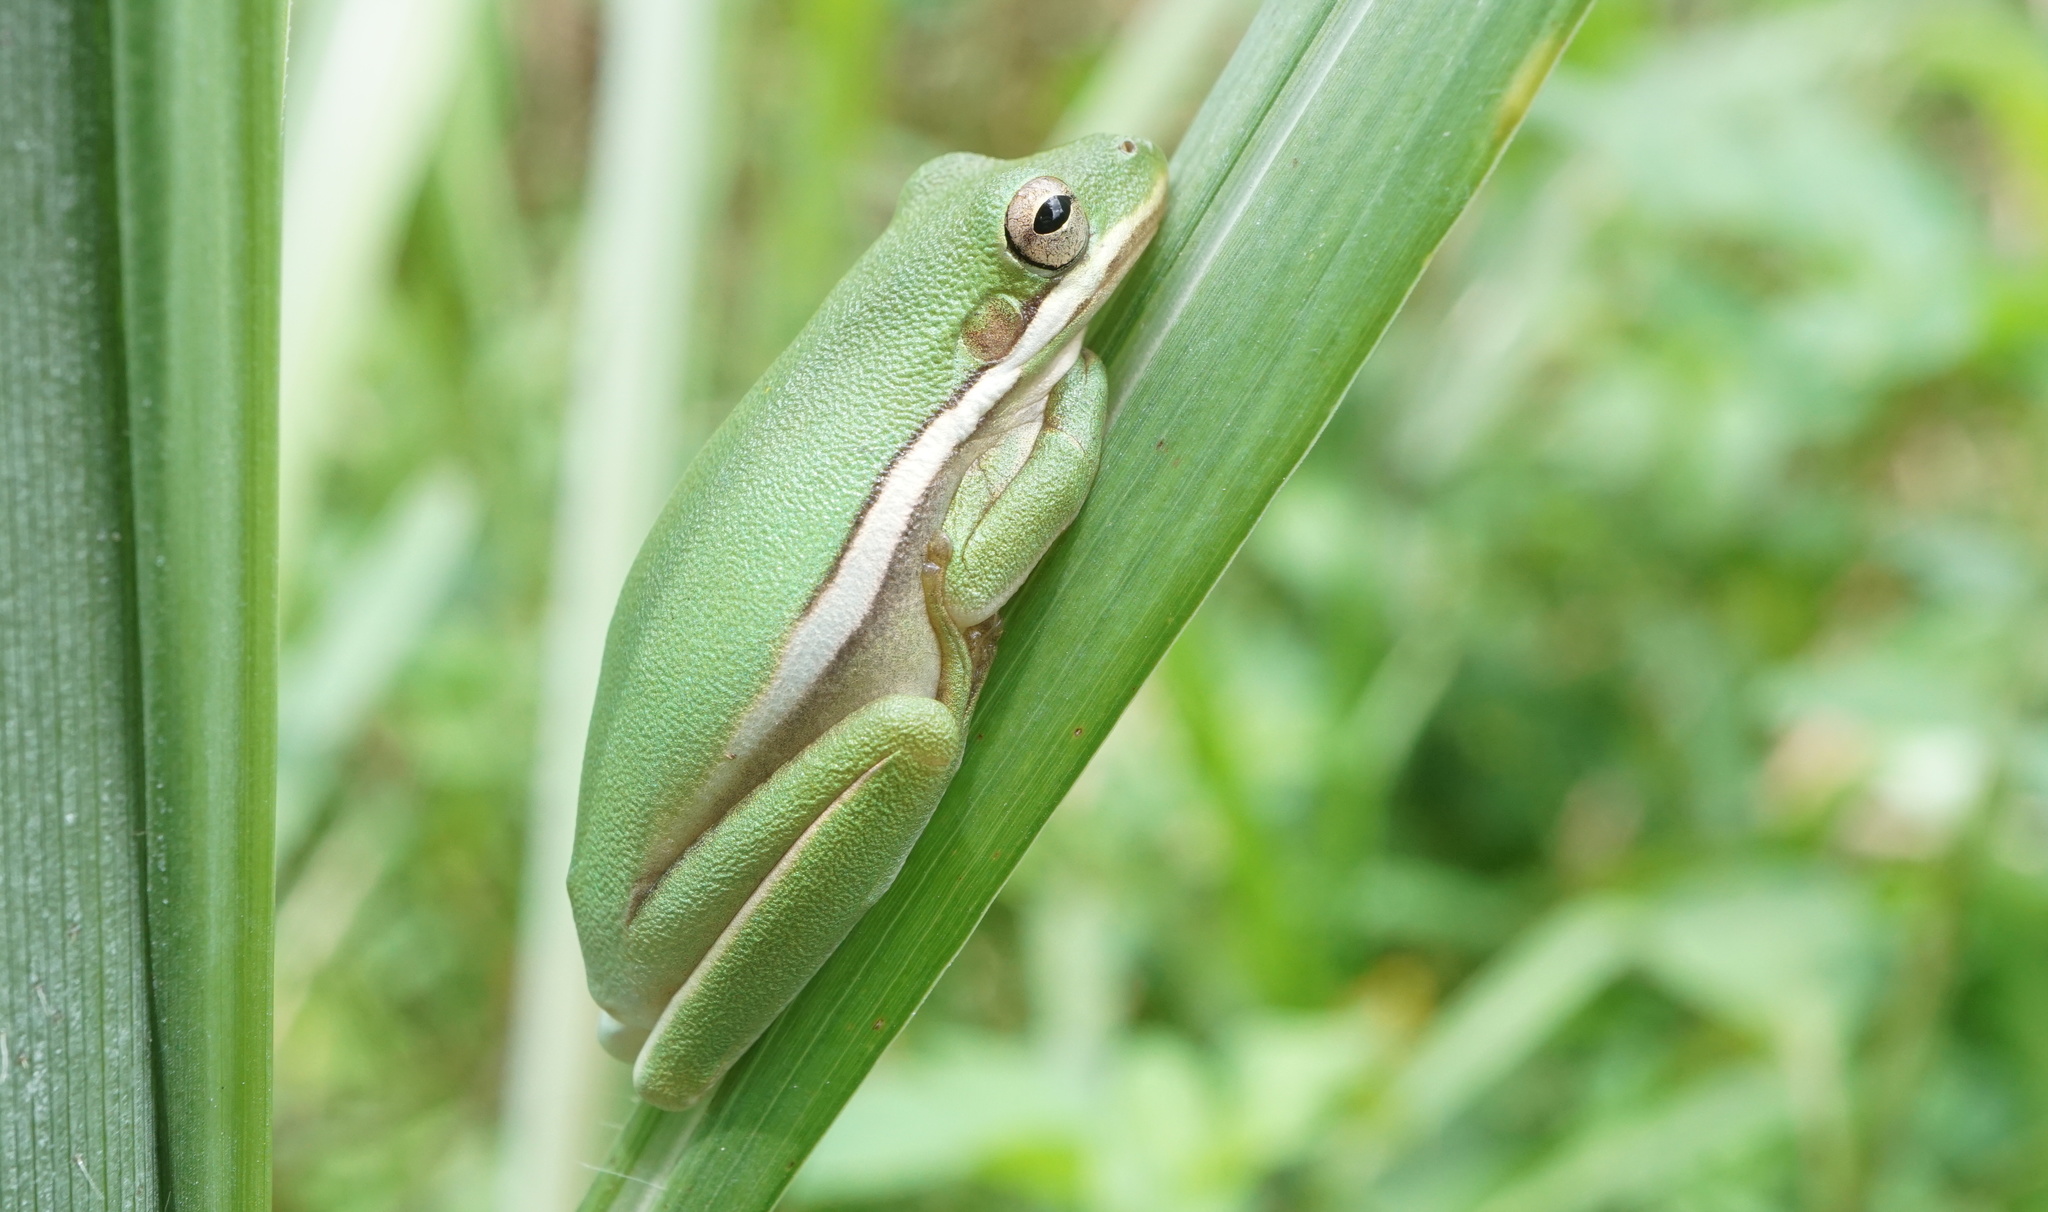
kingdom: Animalia
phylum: Chordata
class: Amphibia
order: Anura
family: Hylidae
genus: Dryophytes
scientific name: Dryophytes cinereus
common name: Green treefrog
